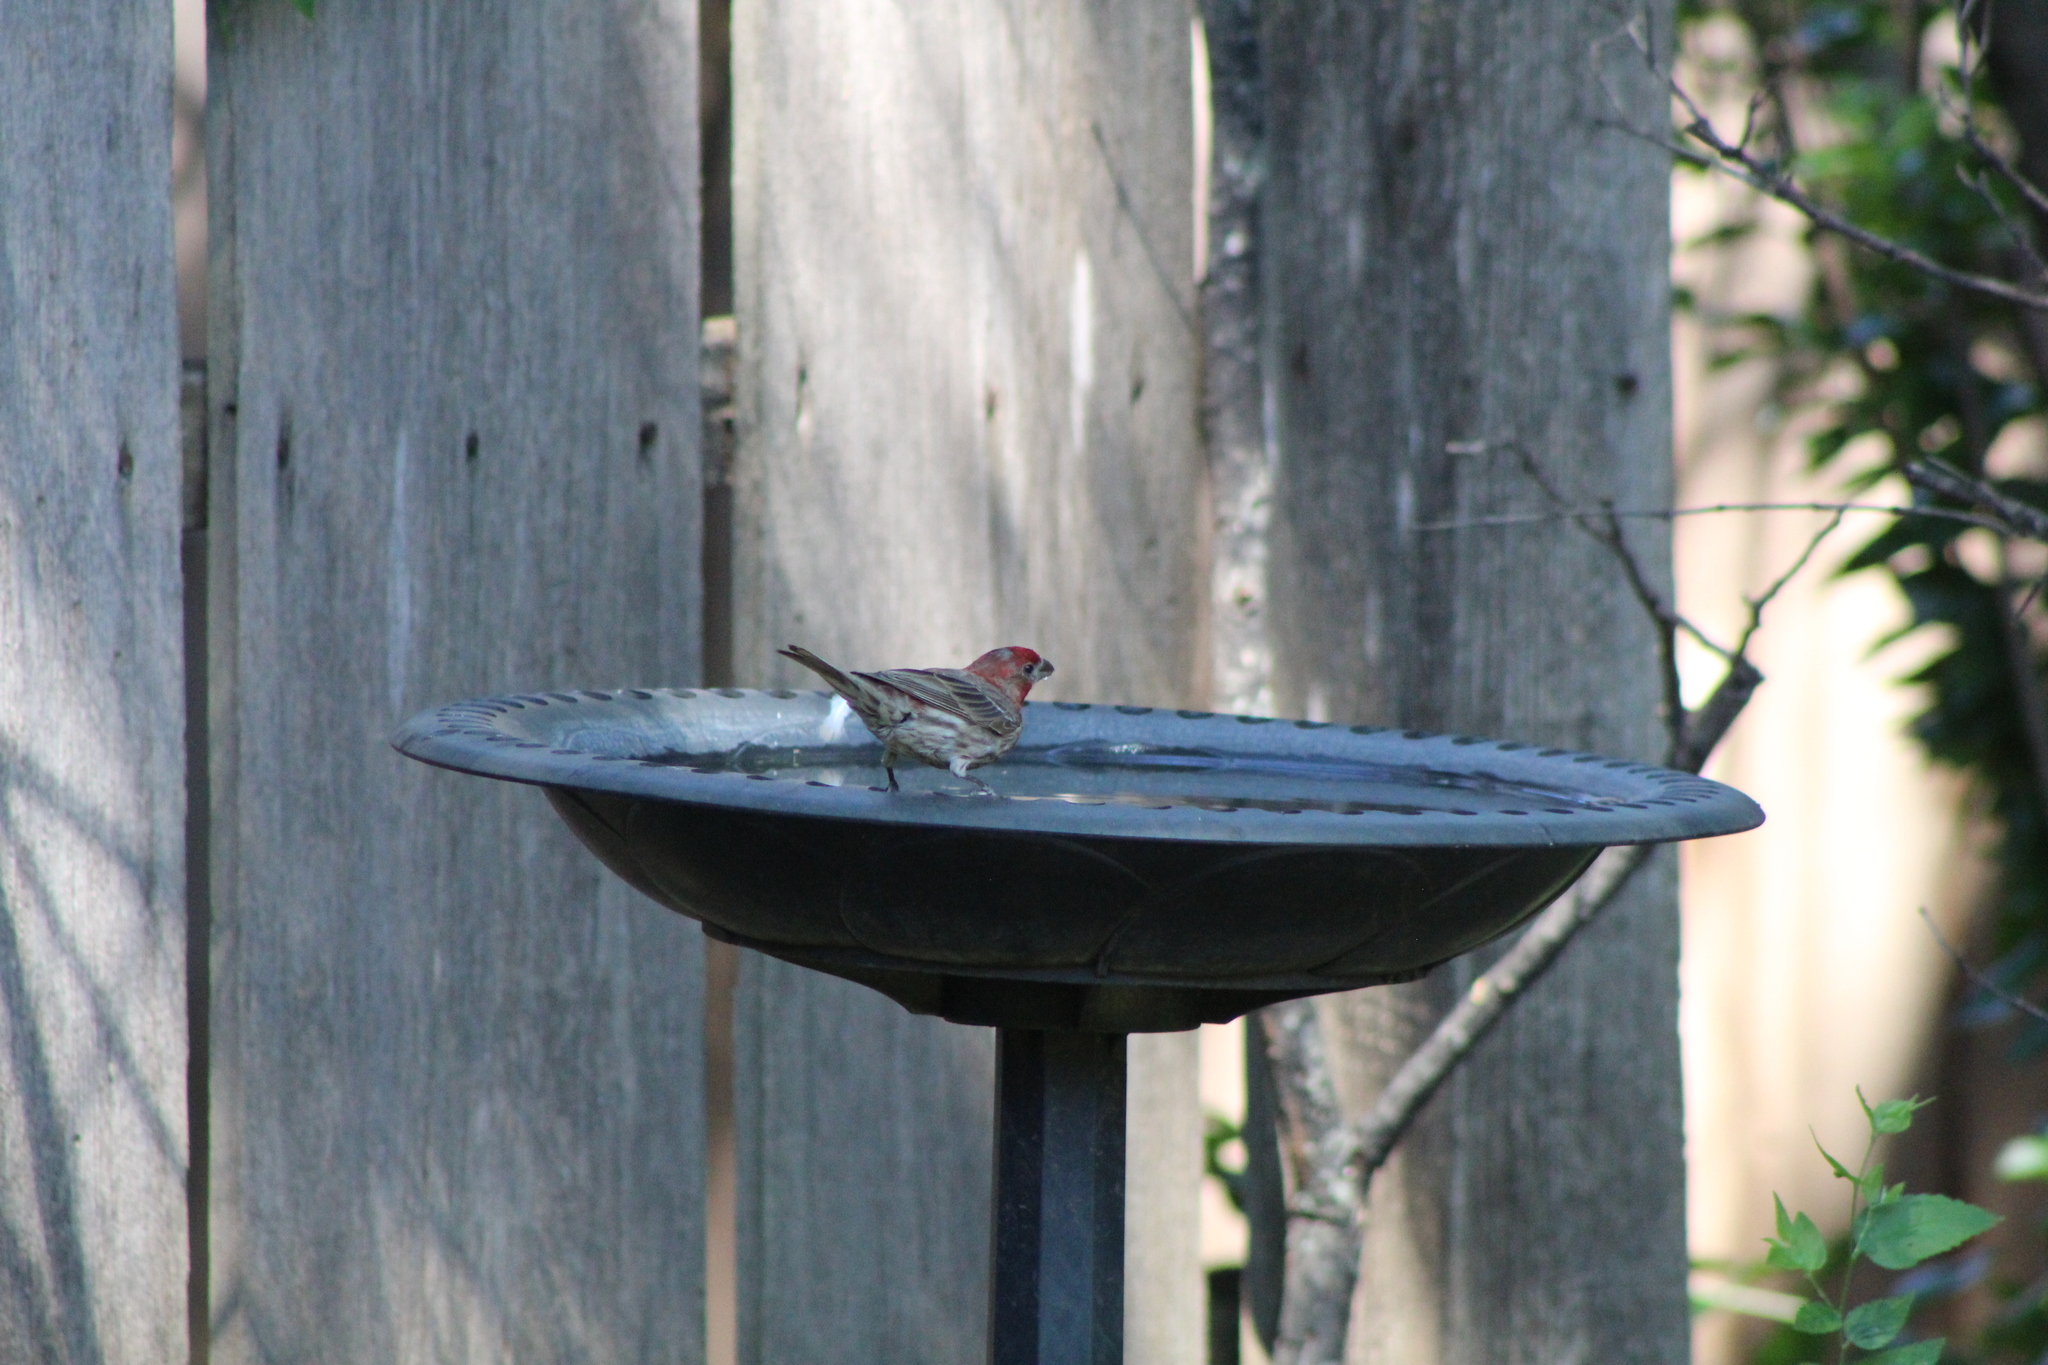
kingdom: Animalia
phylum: Chordata
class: Aves
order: Passeriformes
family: Fringillidae
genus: Haemorhous
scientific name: Haemorhous mexicanus
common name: House finch
